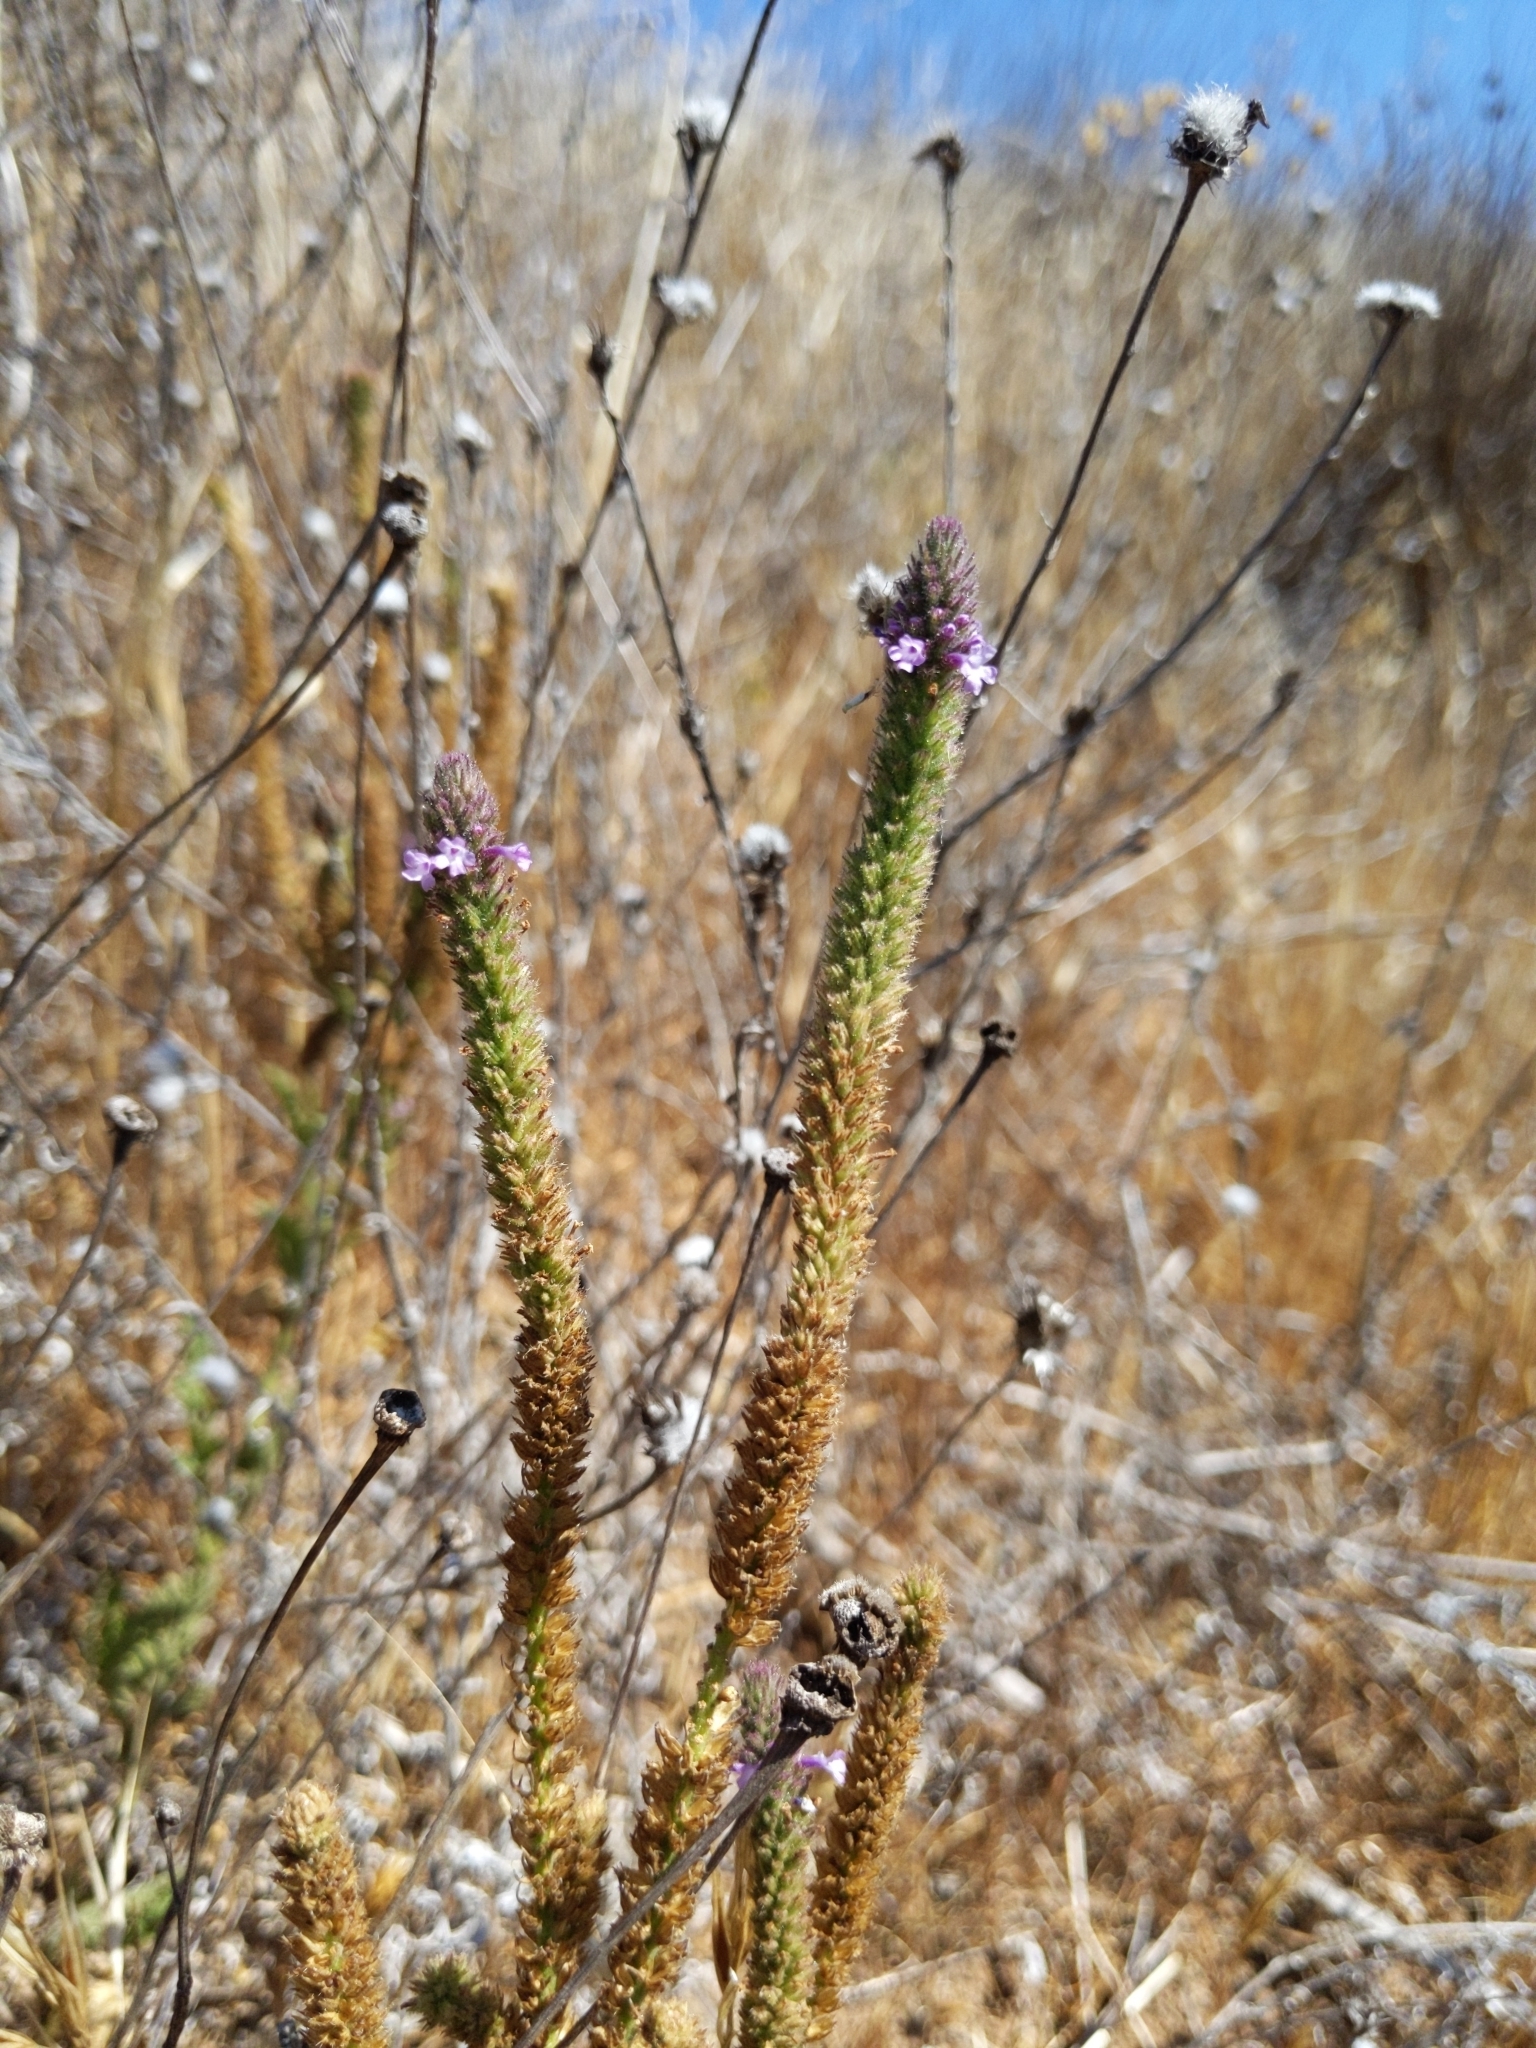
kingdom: Plantae
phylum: Tracheophyta
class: Magnoliopsida
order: Lamiales
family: Verbenaceae
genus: Verbena
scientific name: Verbena lasiostachys
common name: Vervain
